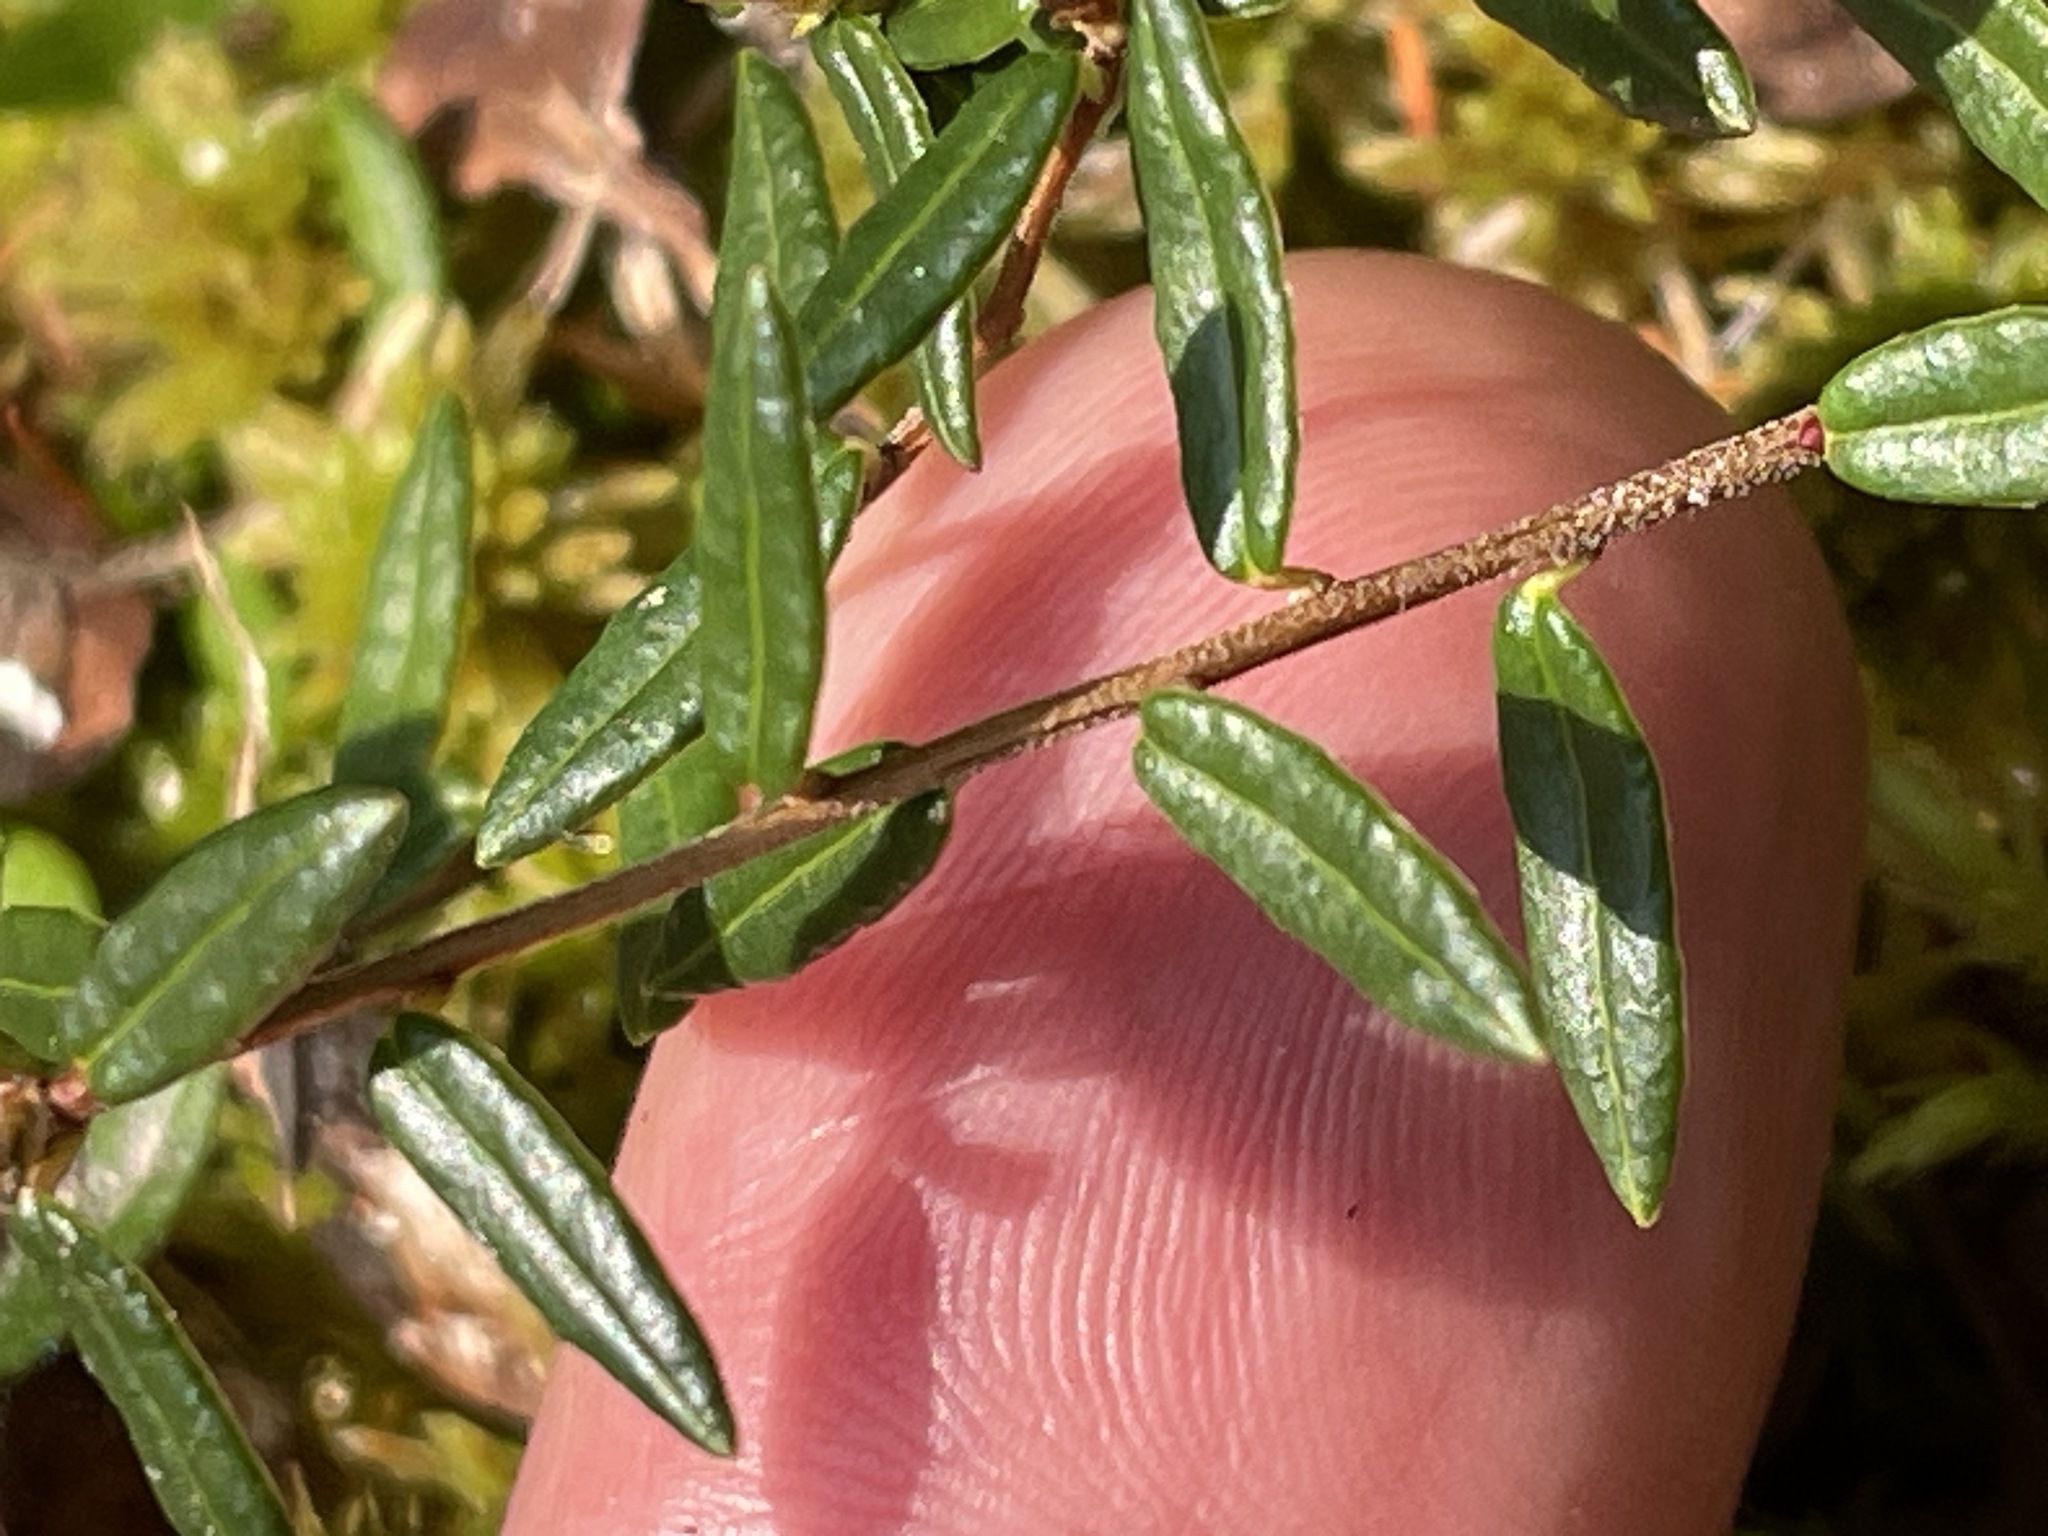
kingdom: Plantae
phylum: Tracheophyta
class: Magnoliopsida
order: Ericales
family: Ericaceae
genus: Vaccinium
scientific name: Vaccinium oxycoccos
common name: Cranberry
